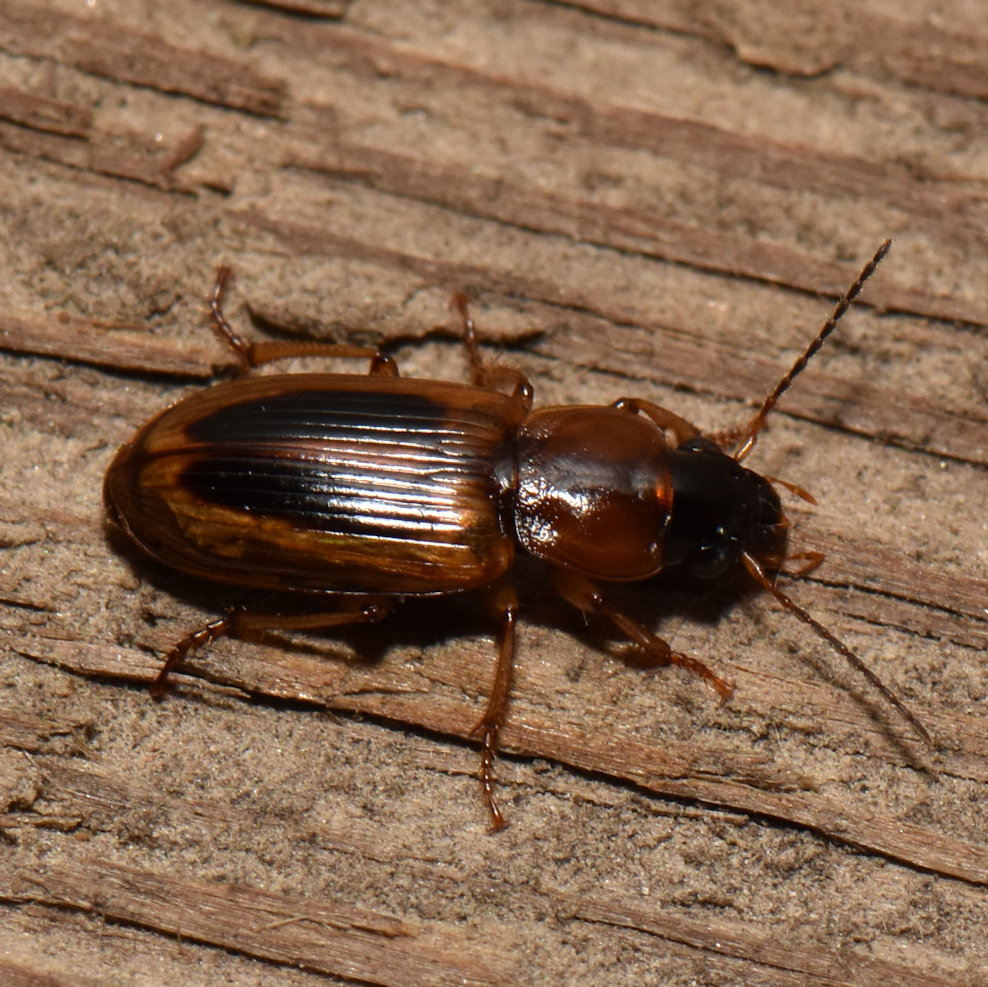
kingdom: Animalia
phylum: Arthropoda
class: Insecta
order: Coleoptera
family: Carabidae
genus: Stenolophus
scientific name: Stenolophus comma
